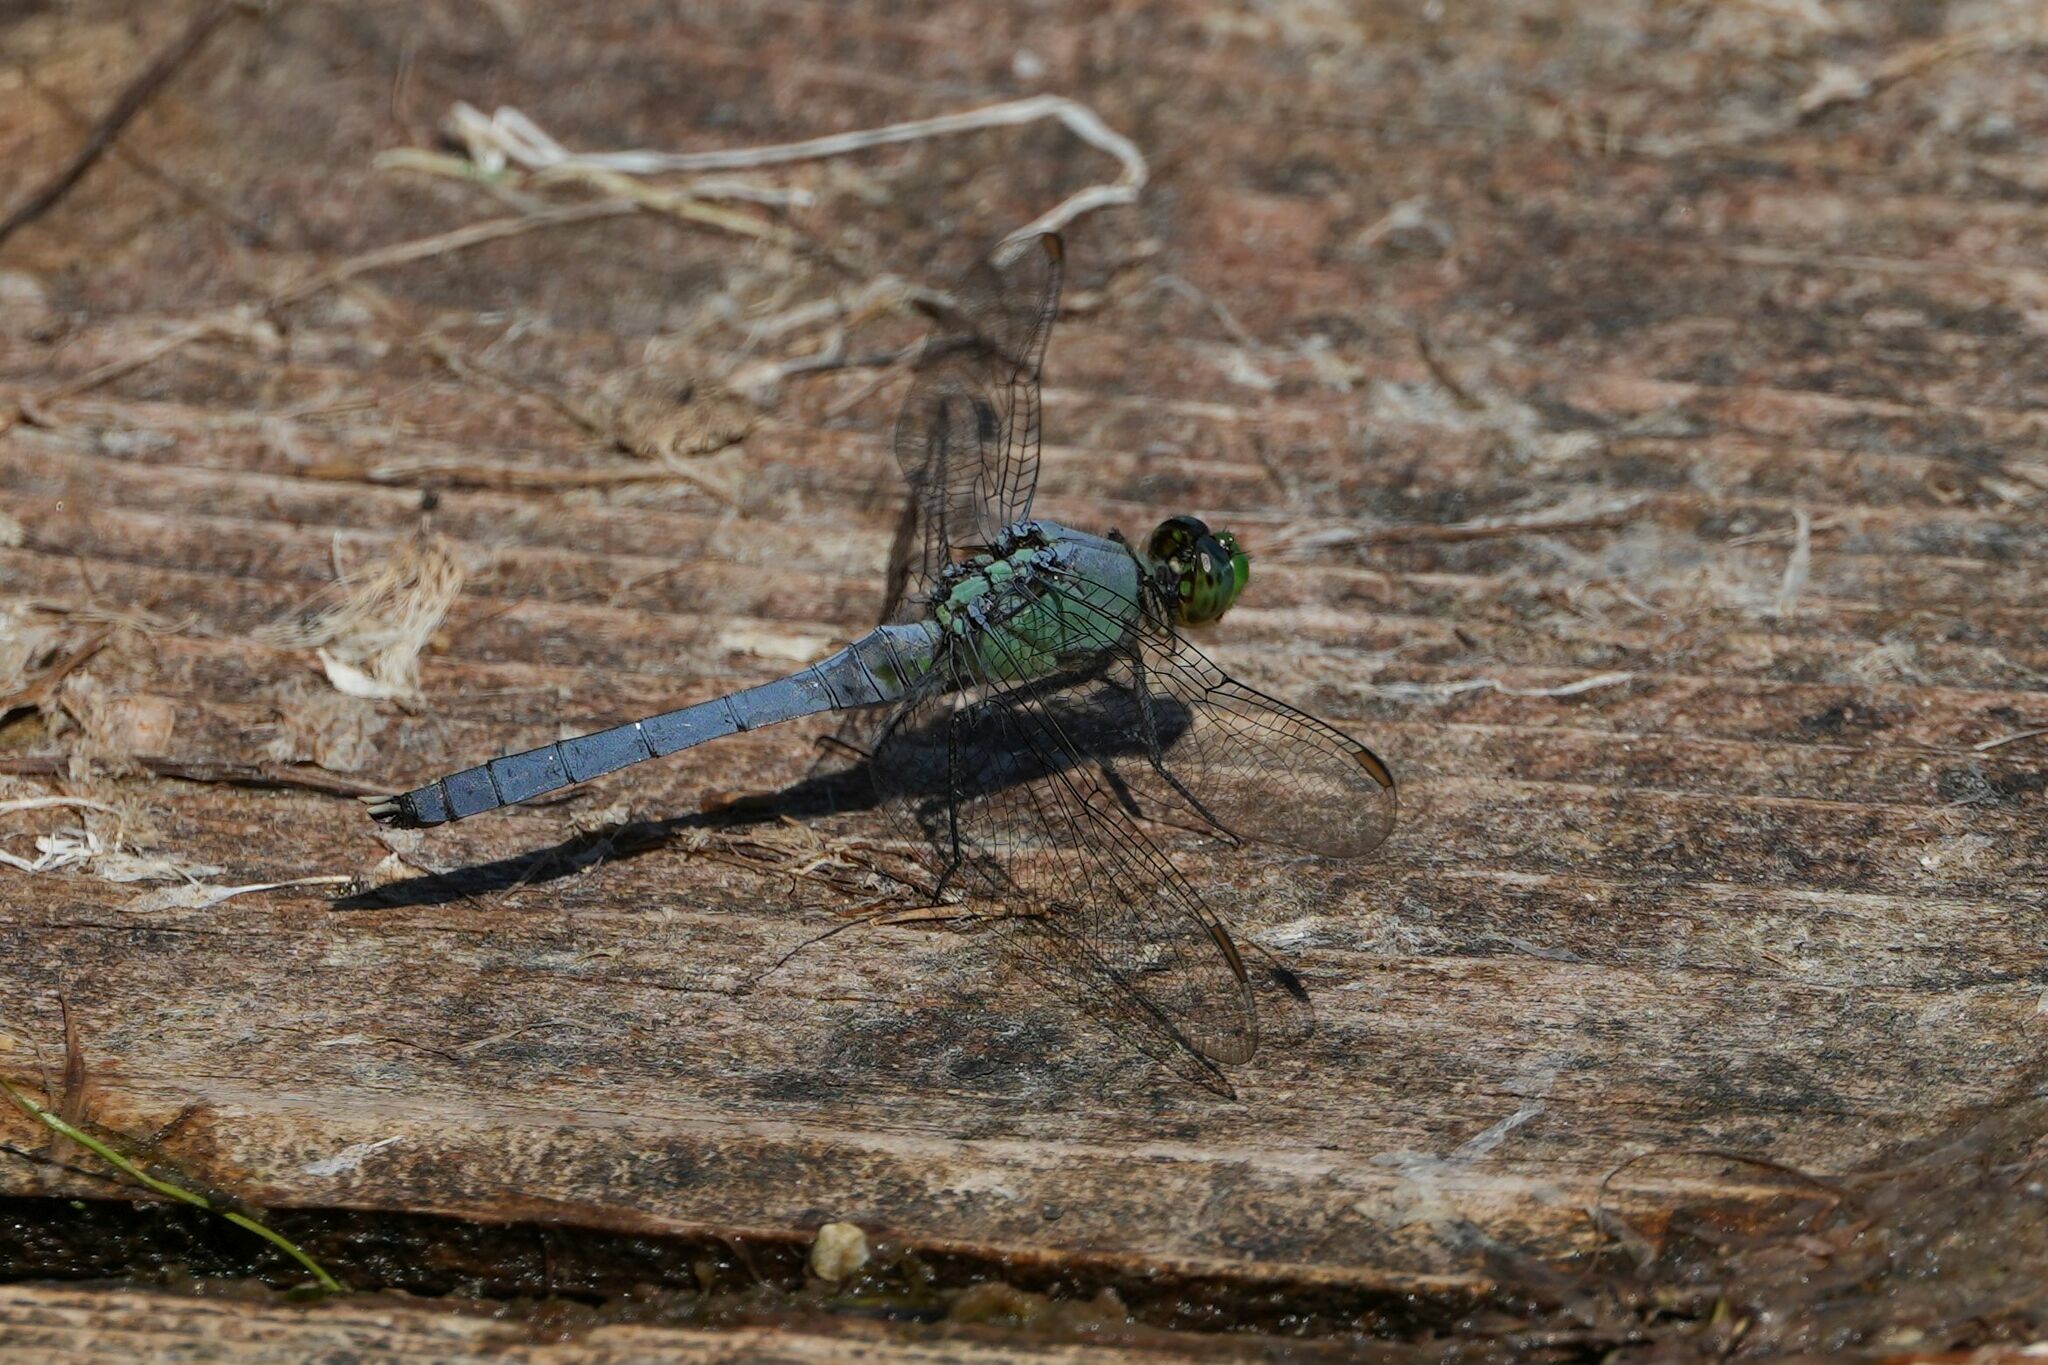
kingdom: Animalia
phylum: Arthropoda
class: Insecta
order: Odonata
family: Libellulidae
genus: Erythemis
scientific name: Erythemis simplicicollis
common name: Eastern pondhawk
